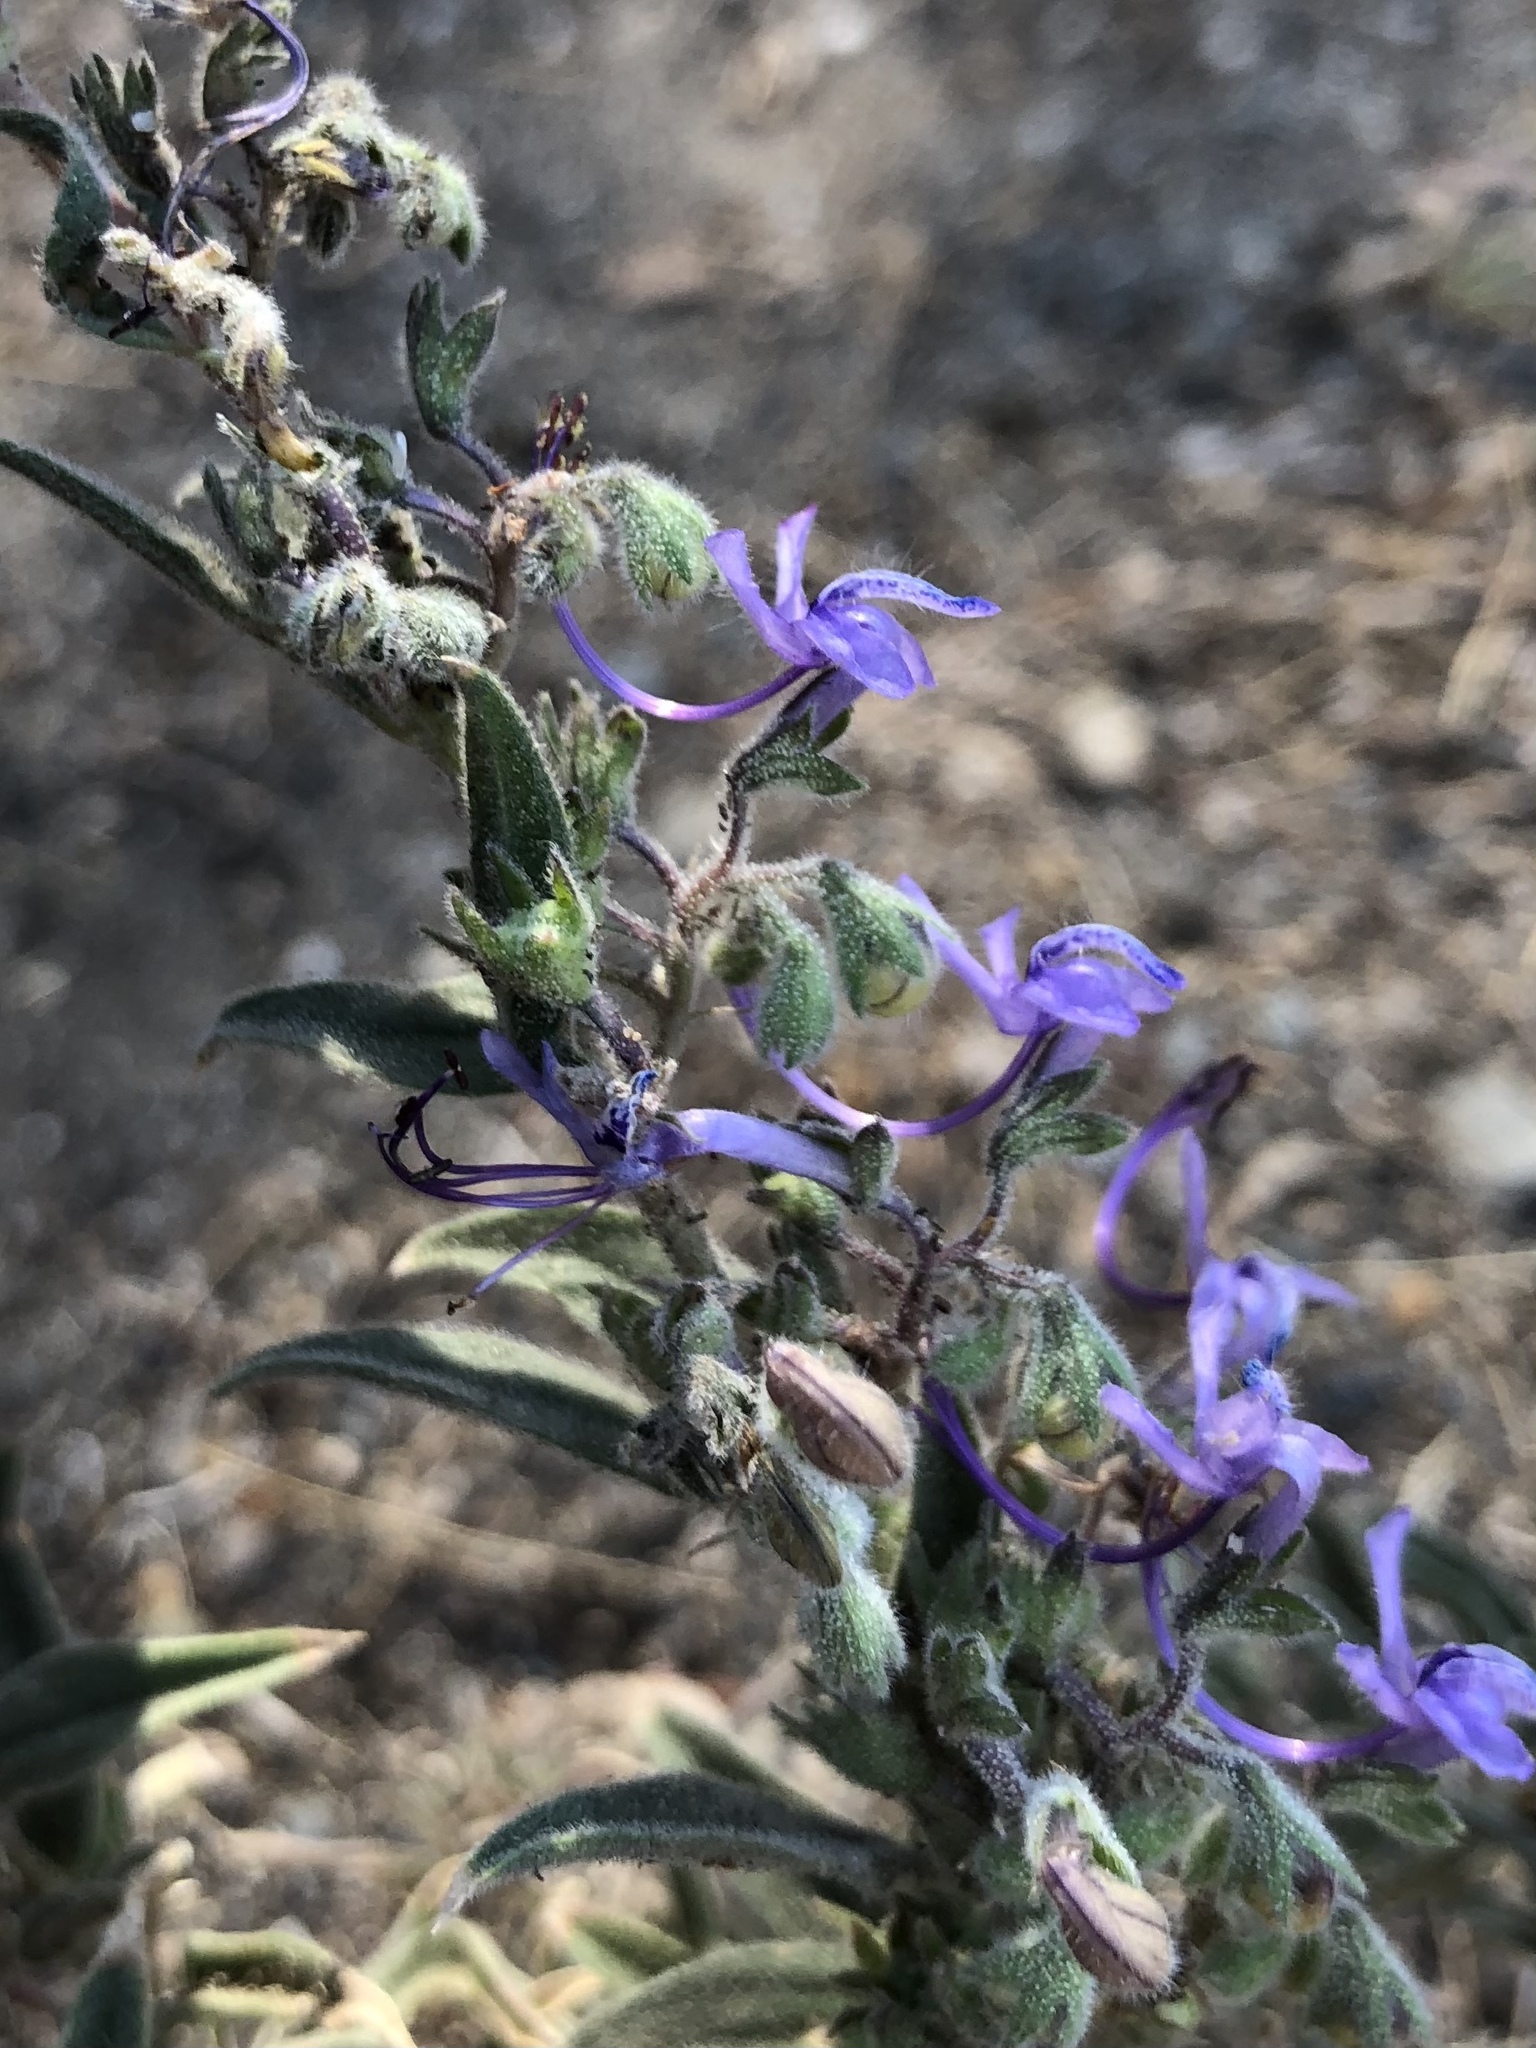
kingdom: Plantae
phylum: Tracheophyta
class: Magnoliopsida
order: Lamiales
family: Lamiaceae
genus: Trichostema
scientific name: Trichostema lanceolatum
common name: Vinegar-weed
